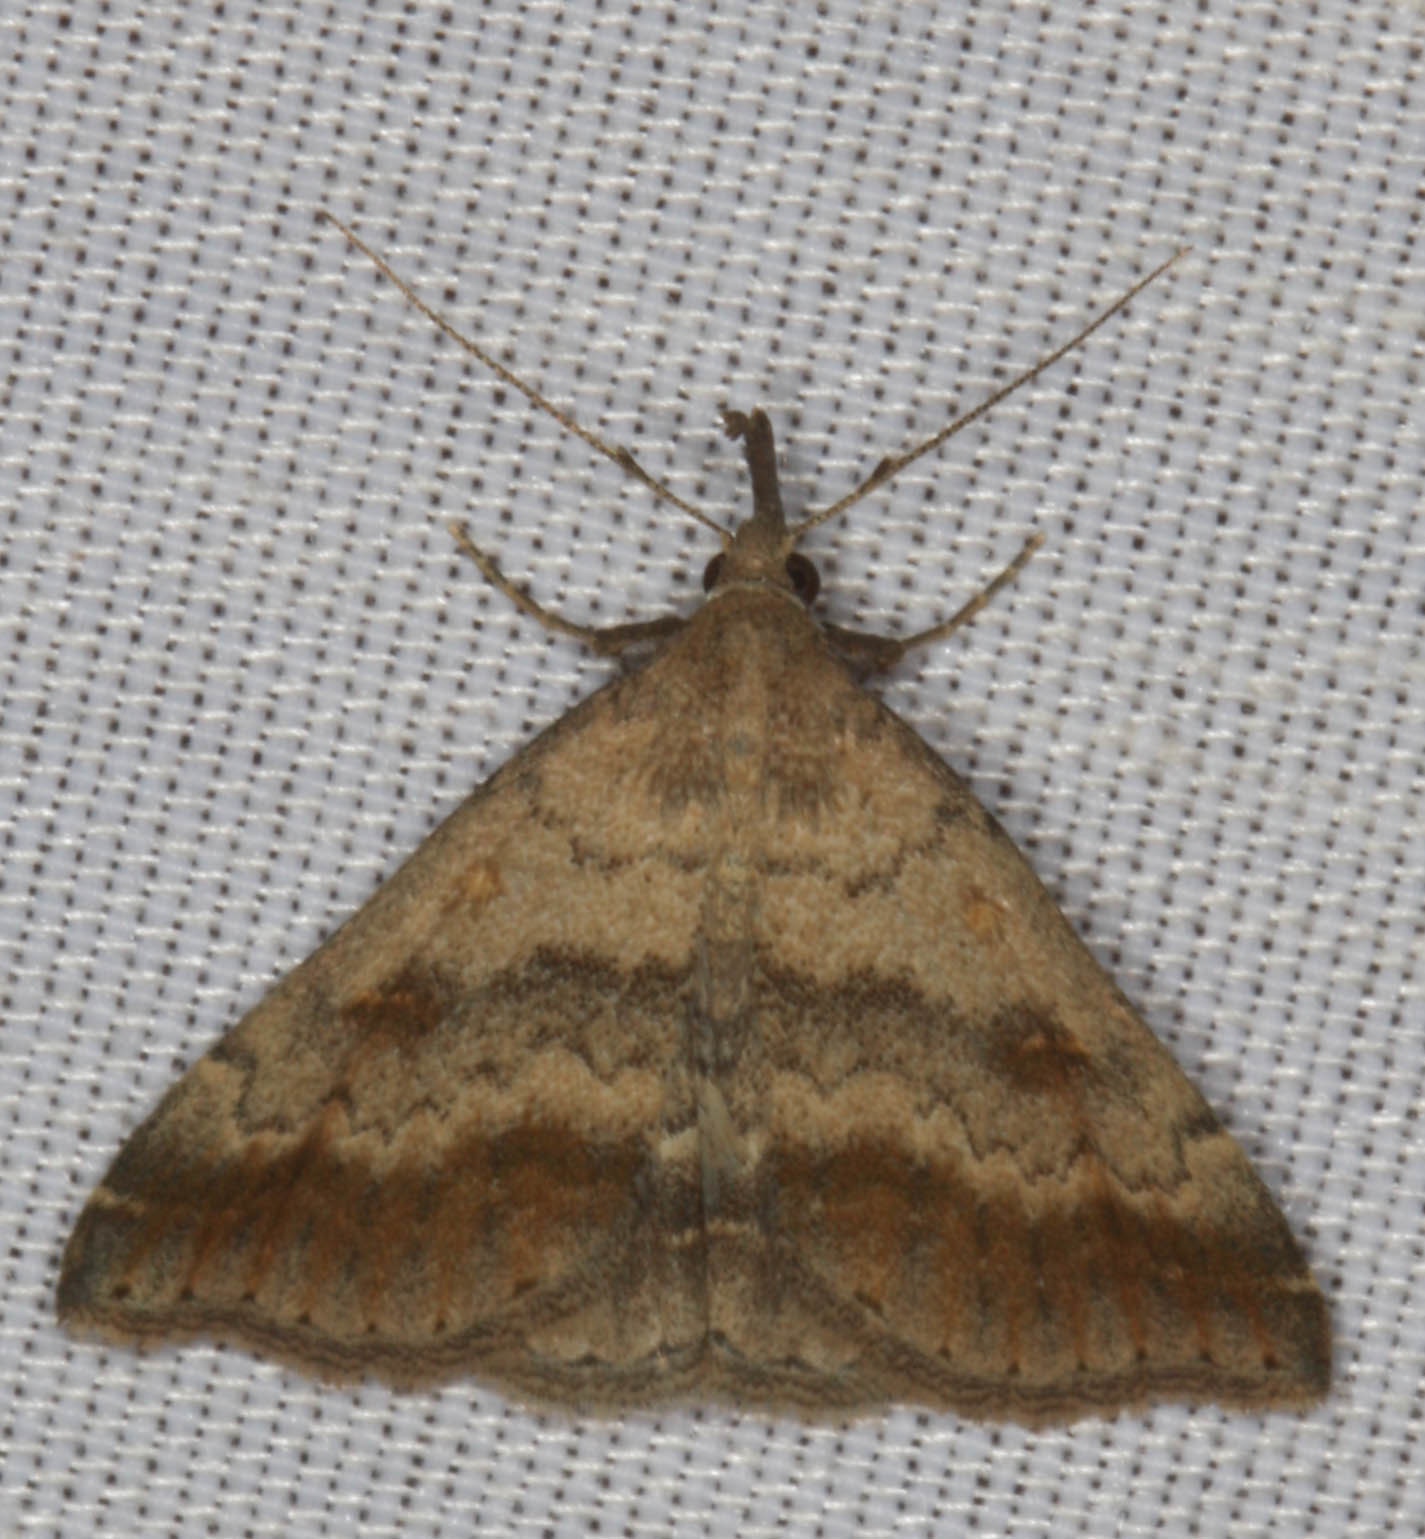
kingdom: Animalia
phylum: Arthropoda
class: Insecta
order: Lepidoptera
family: Erebidae
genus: Tetanolita
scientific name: Tetanolita palligera
